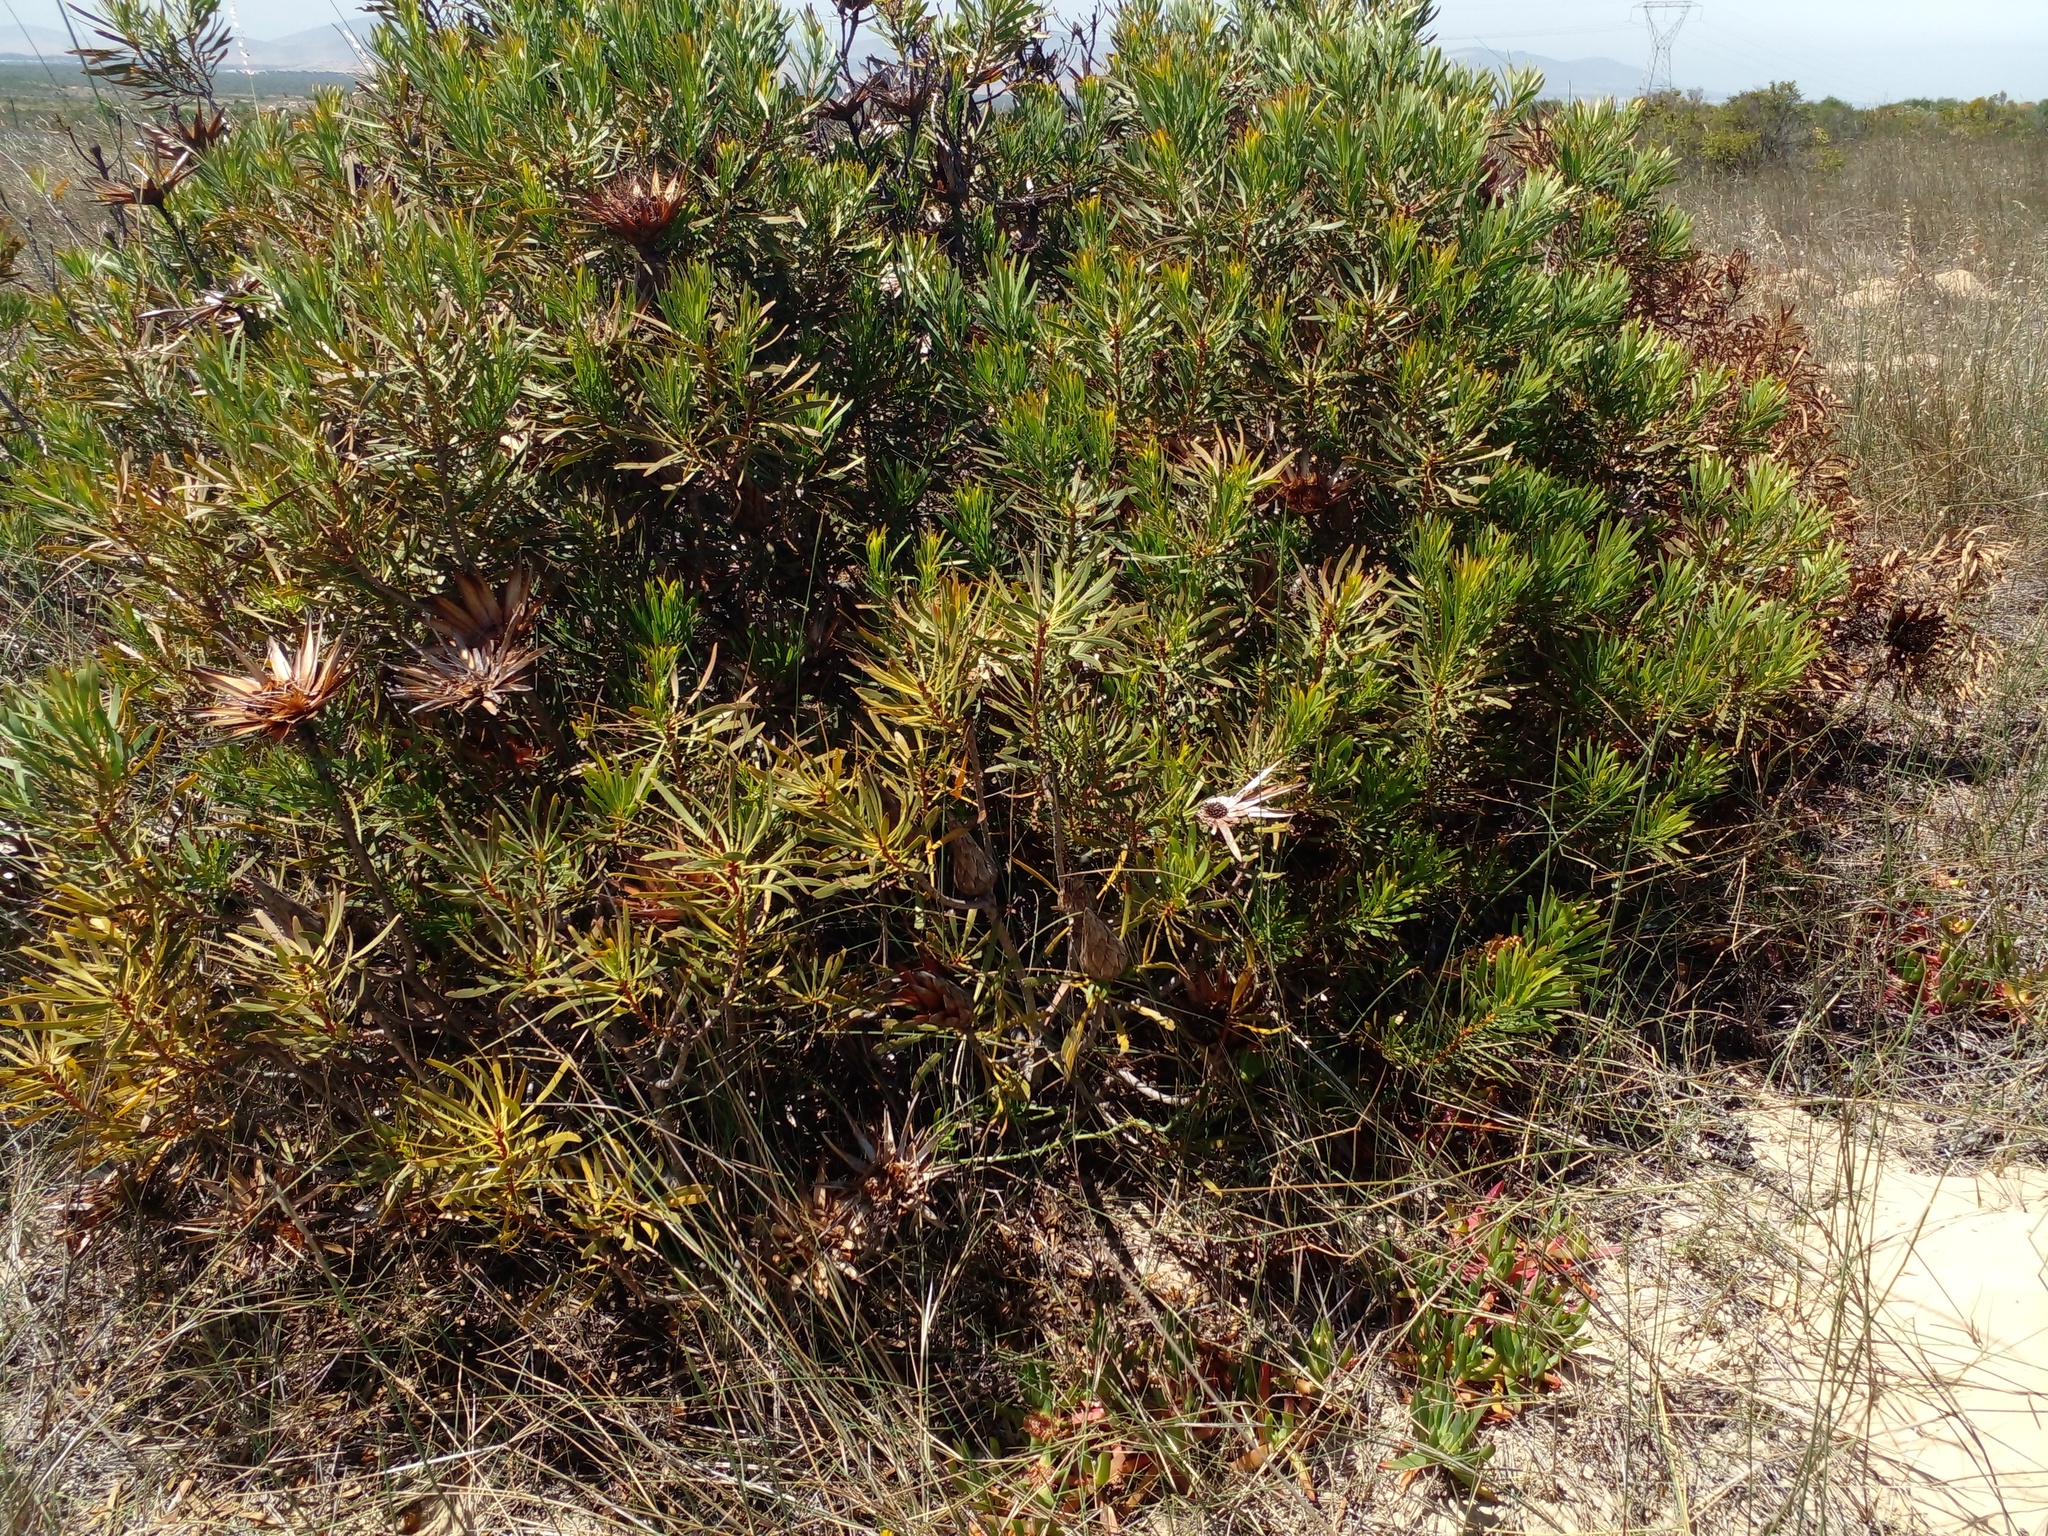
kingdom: Plantae
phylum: Tracheophyta
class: Magnoliopsida
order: Proteales
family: Proteaceae
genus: Protea
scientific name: Protea repens
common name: Sugarbush
